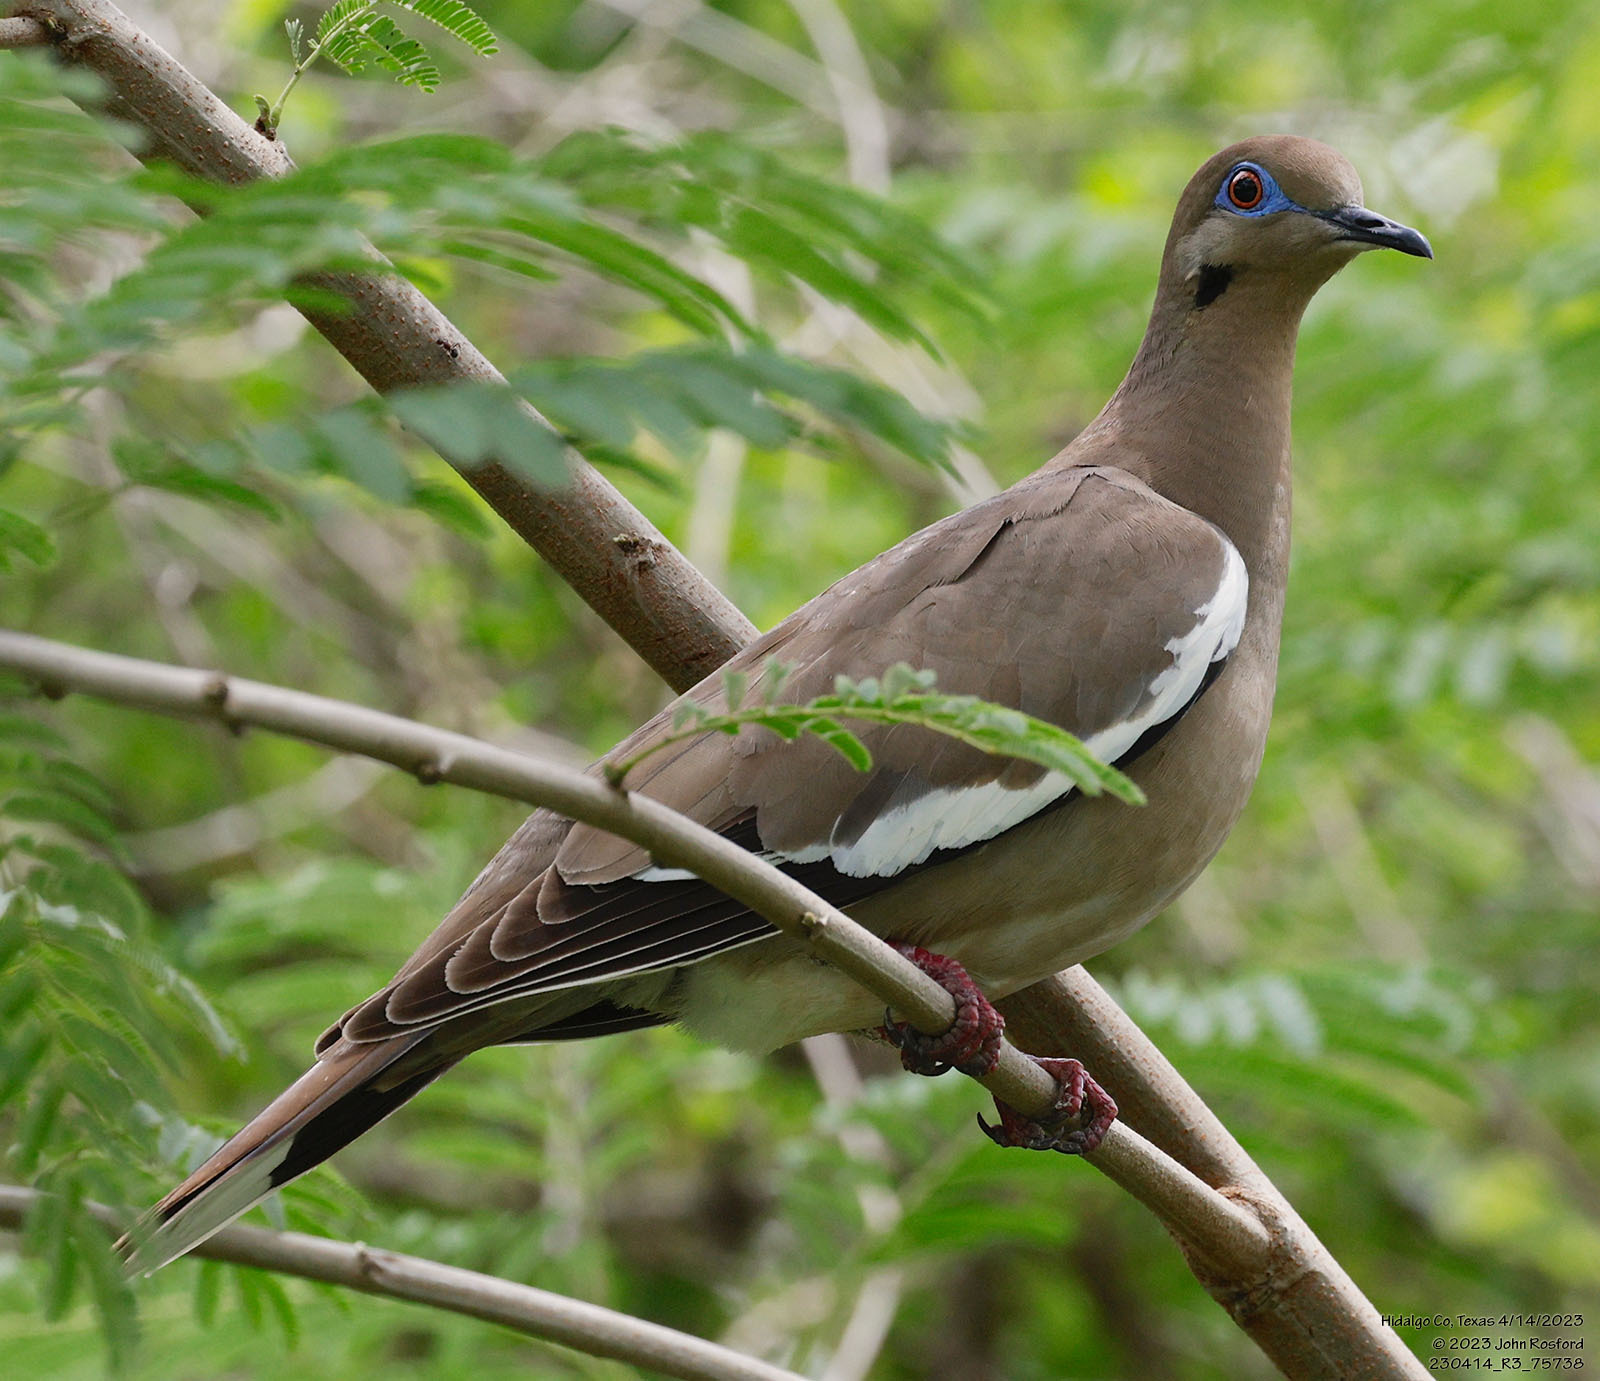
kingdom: Animalia
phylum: Chordata
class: Aves
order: Columbiformes
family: Columbidae
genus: Zenaida
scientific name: Zenaida asiatica
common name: White-winged dove
